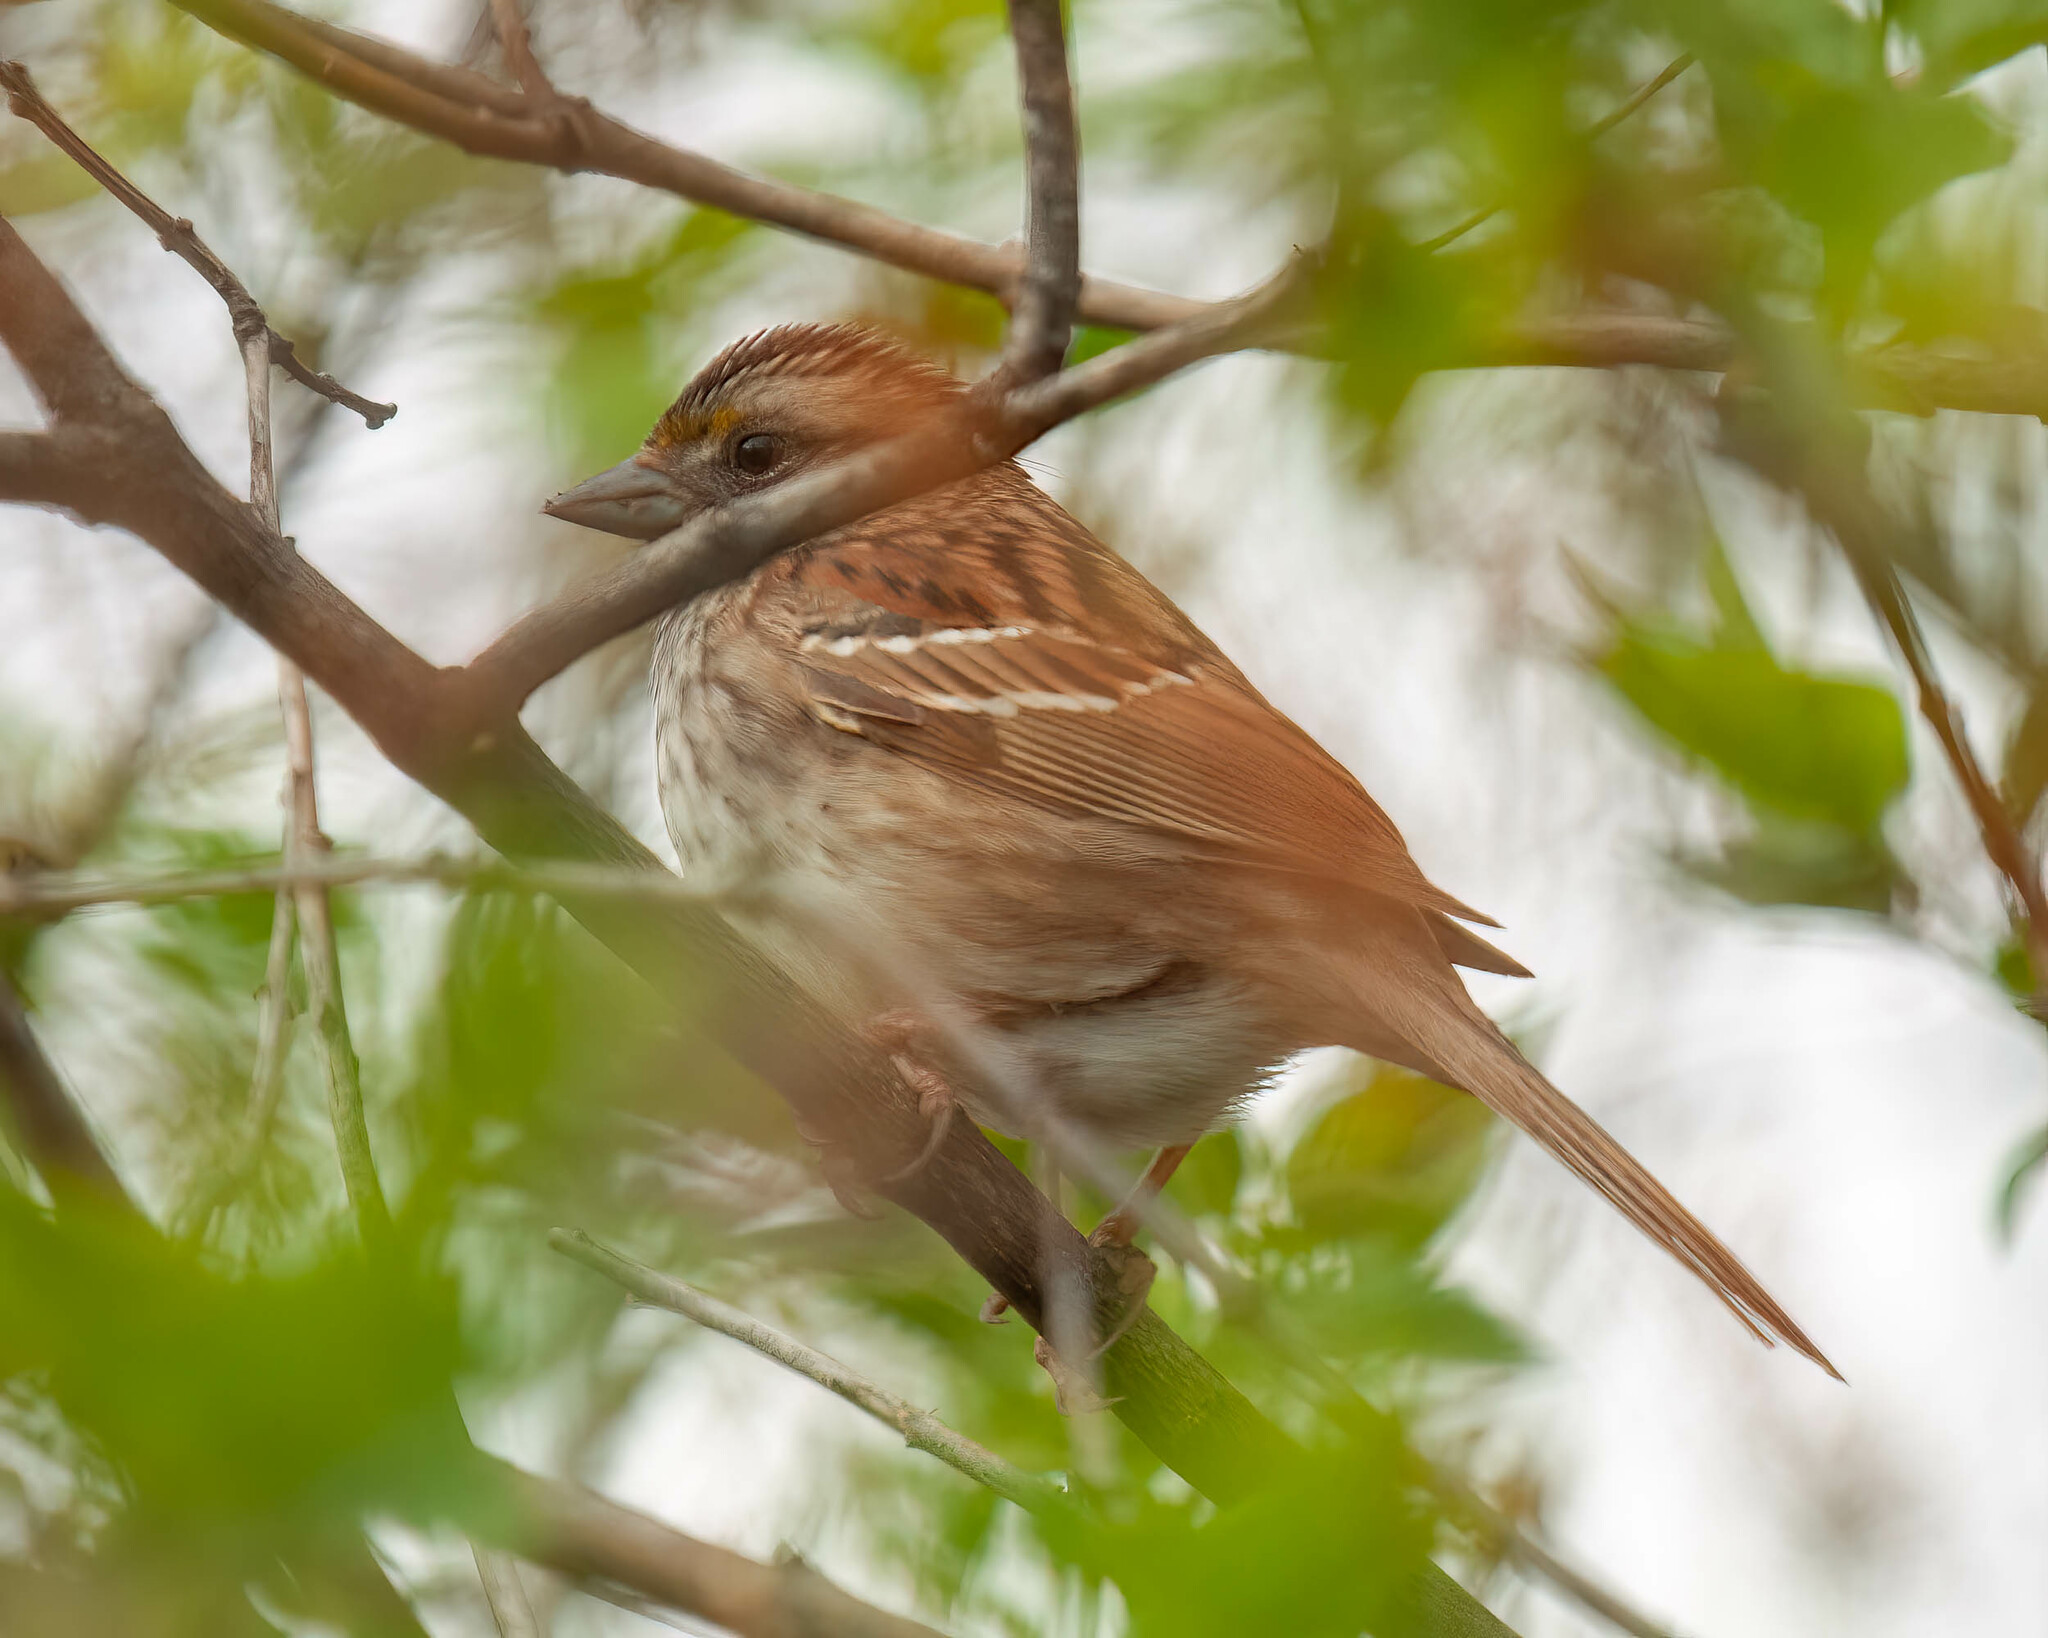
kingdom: Animalia
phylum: Chordata
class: Aves
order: Passeriformes
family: Passerellidae
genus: Zonotrichia
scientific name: Zonotrichia albicollis
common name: White-throated sparrow
